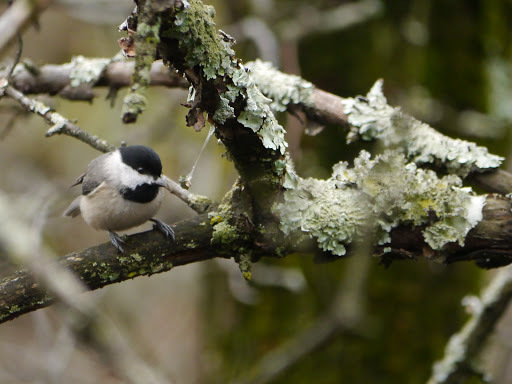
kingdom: Animalia
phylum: Chordata
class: Aves
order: Passeriformes
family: Paridae
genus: Poecile
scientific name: Poecile carolinensis
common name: Carolina chickadee
